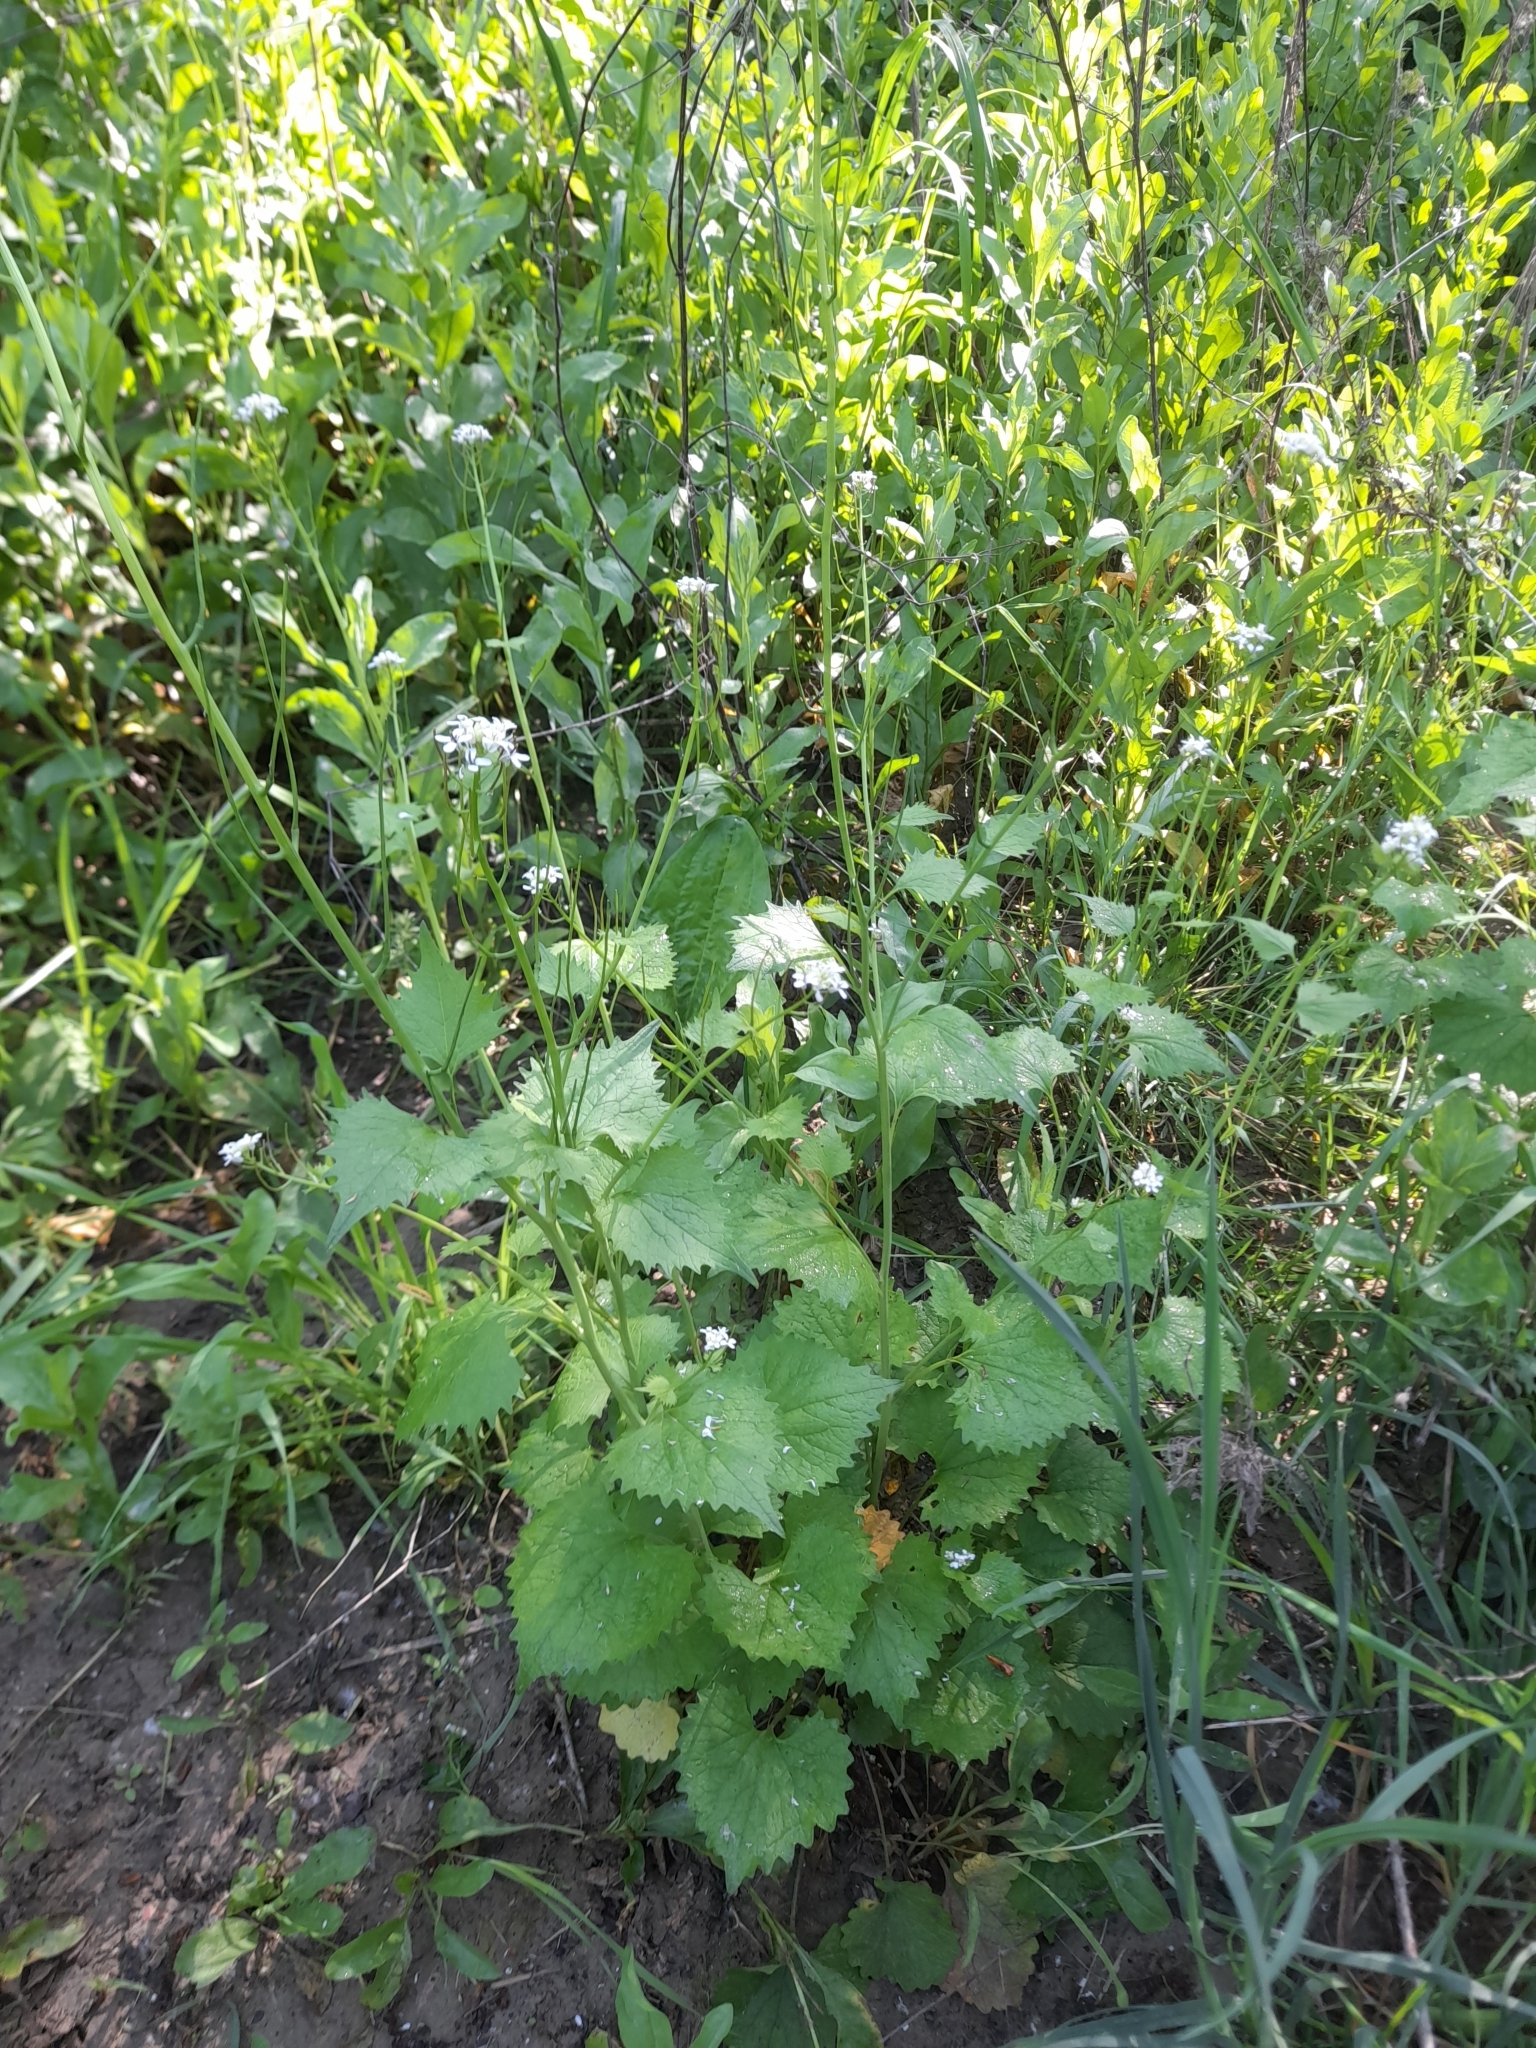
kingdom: Plantae
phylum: Tracheophyta
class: Magnoliopsida
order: Brassicales
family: Brassicaceae
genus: Alliaria
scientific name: Alliaria petiolata
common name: Garlic mustard
